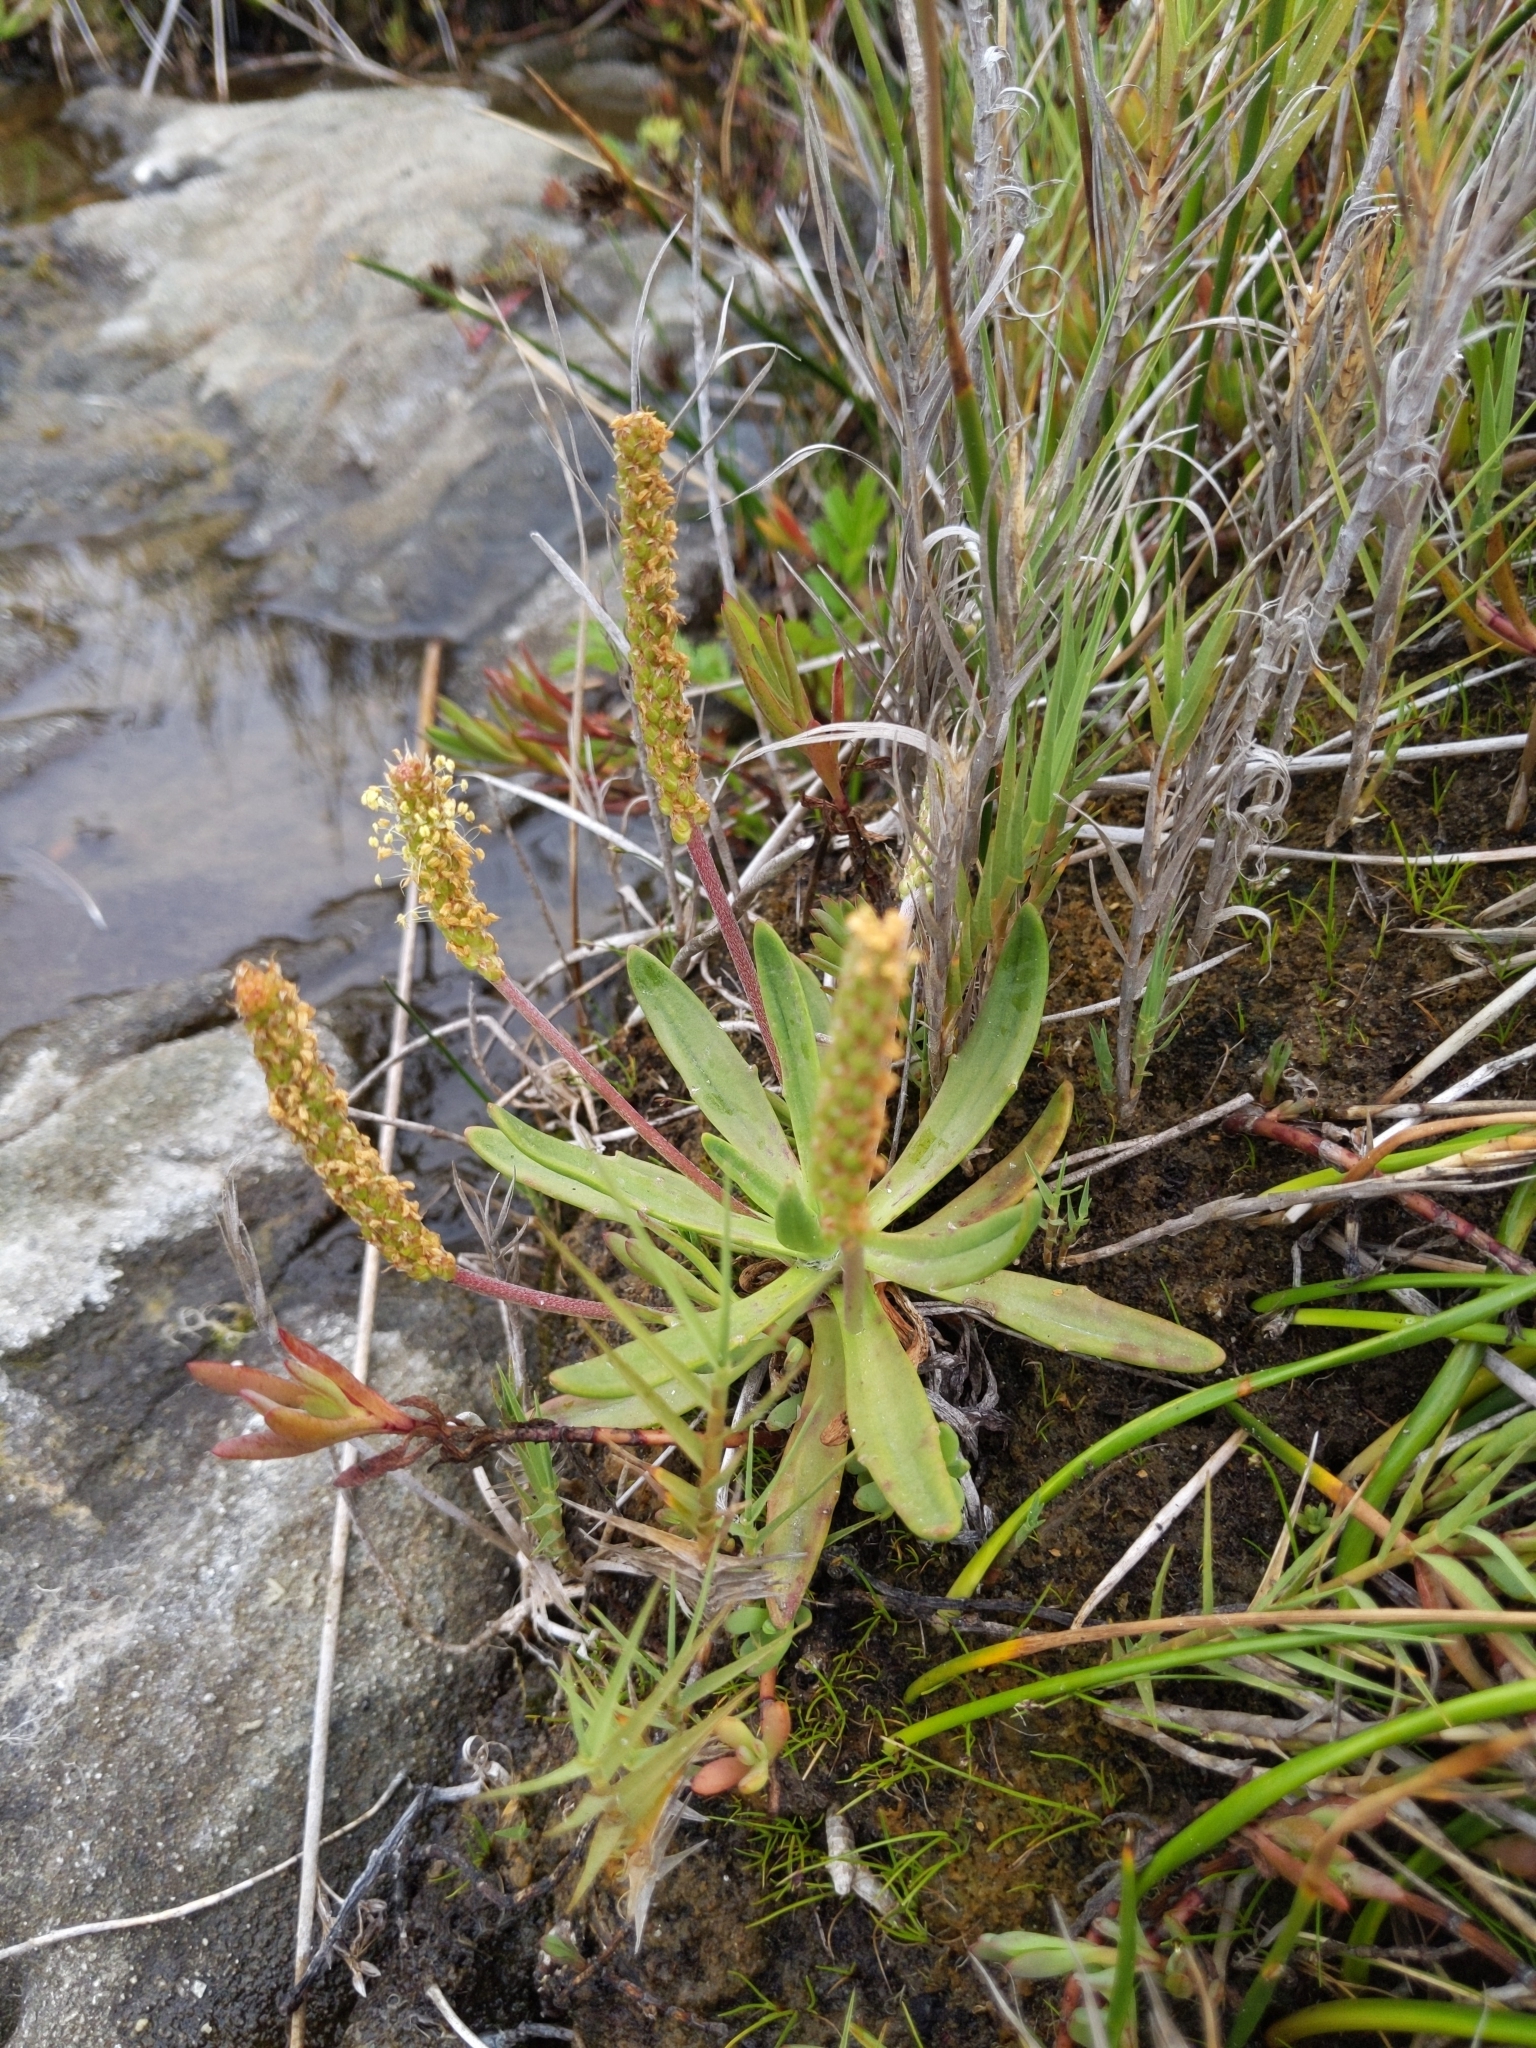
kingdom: Plantae
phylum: Tracheophyta
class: Magnoliopsida
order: Lamiales
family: Plantaginaceae
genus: Plantago
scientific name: Plantago maritima
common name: Sea plantain
